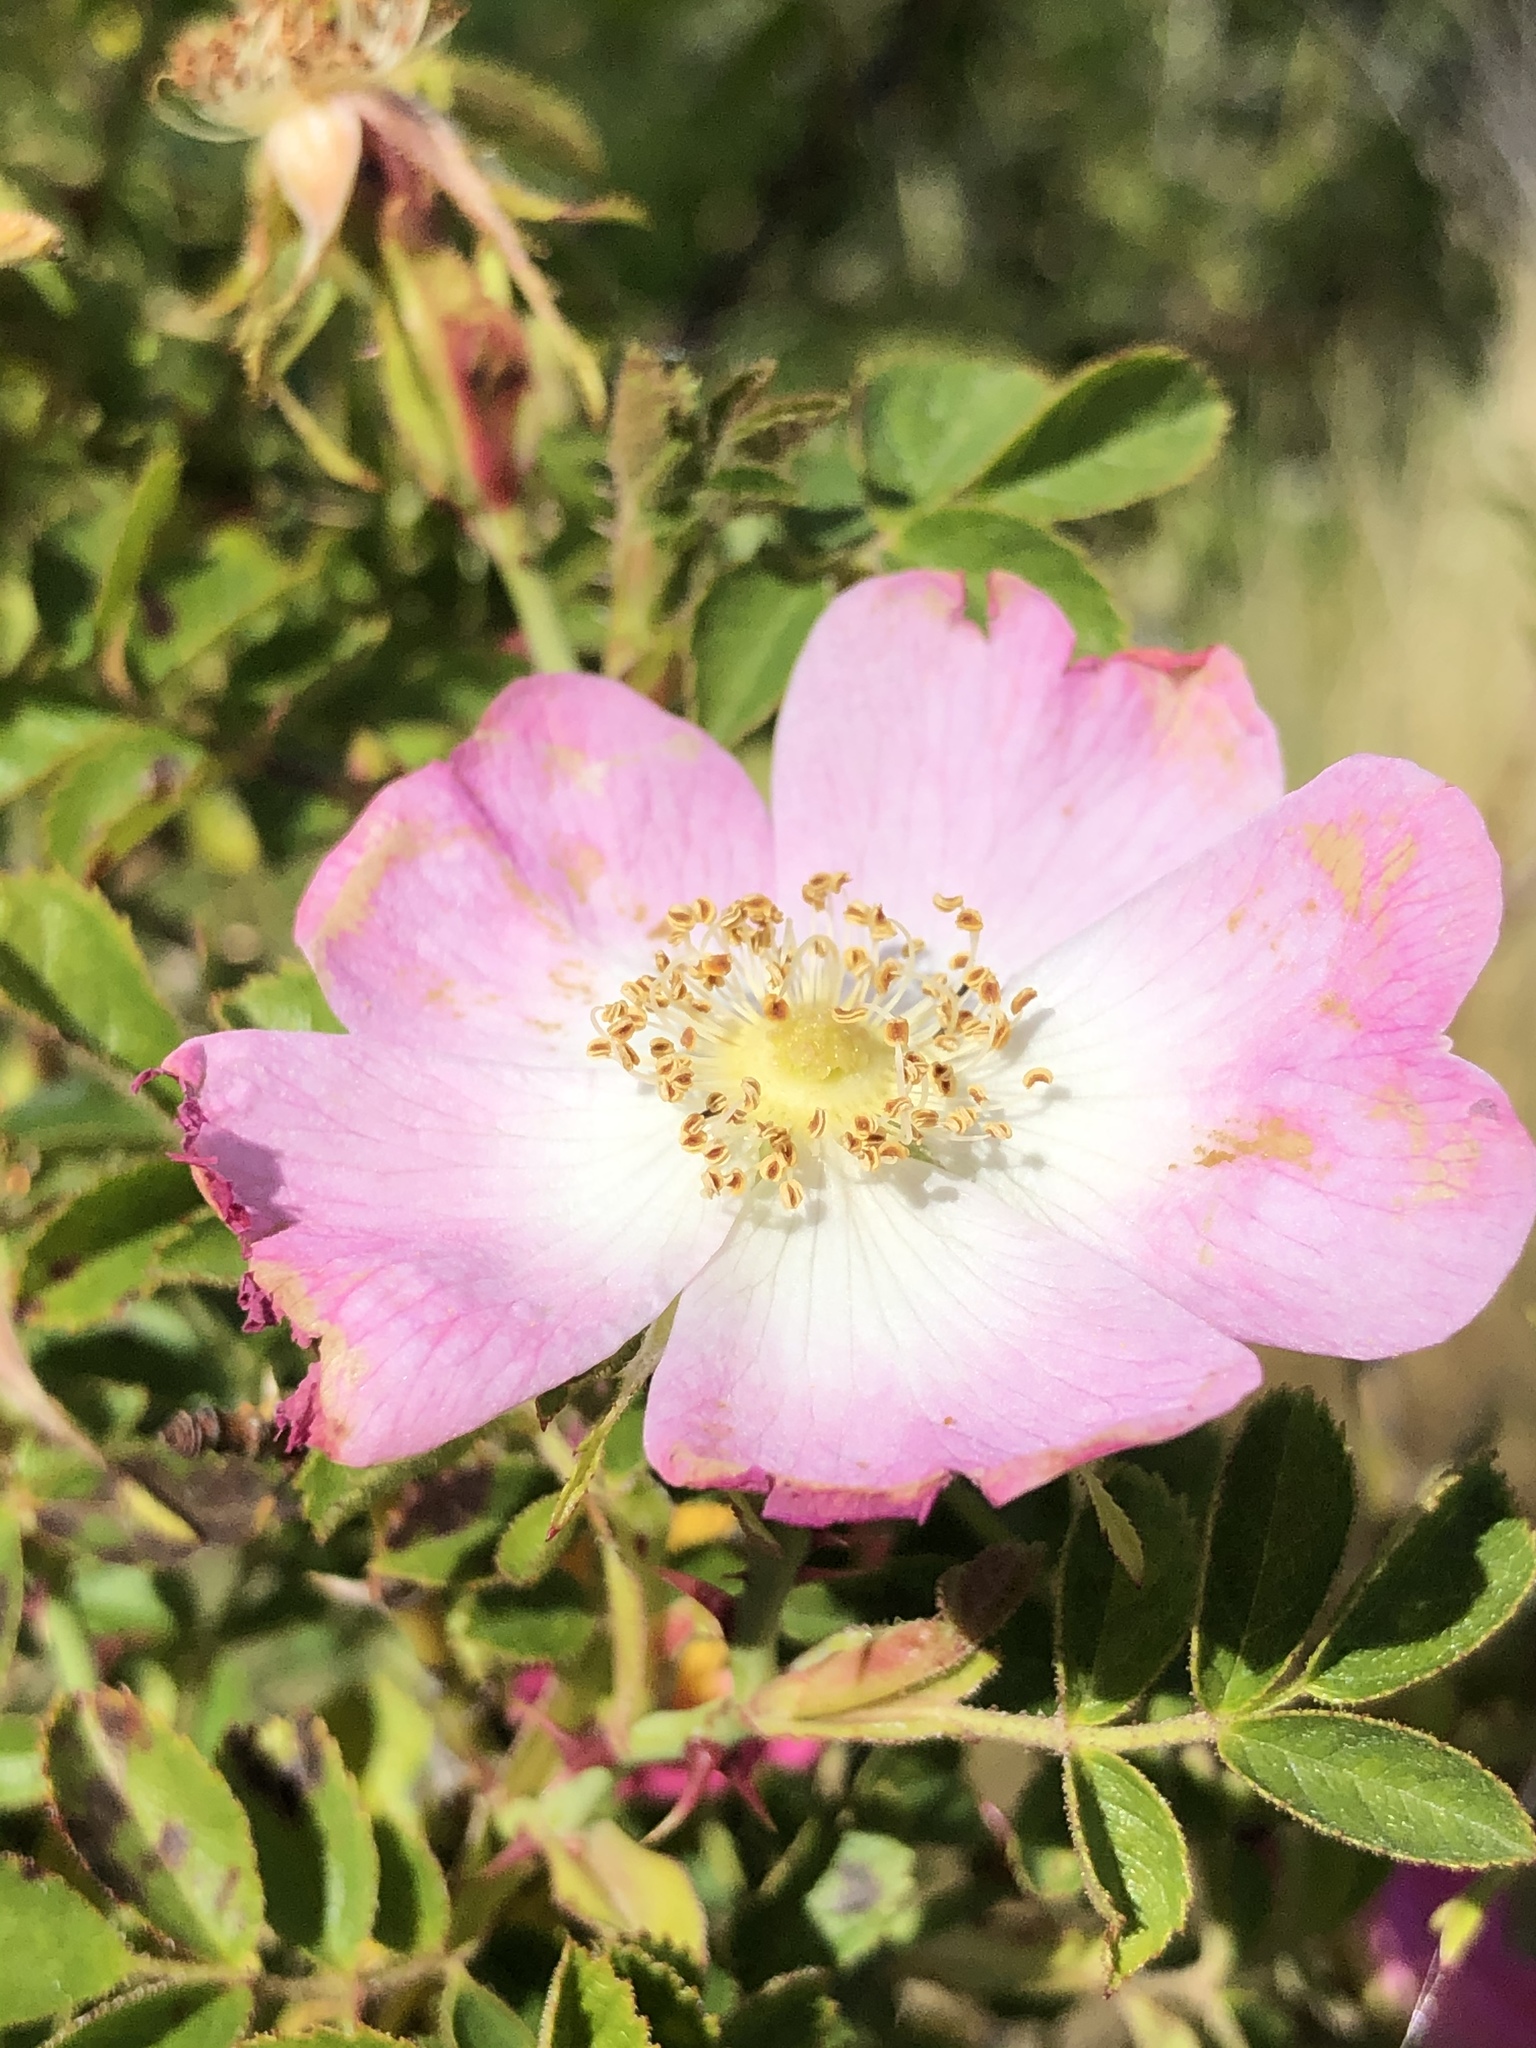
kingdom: Plantae
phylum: Tracheophyta
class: Magnoliopsida
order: Rosales
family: Rosaceae
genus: Rosa
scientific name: Rosa rubiginosa
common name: Sweet-briar
